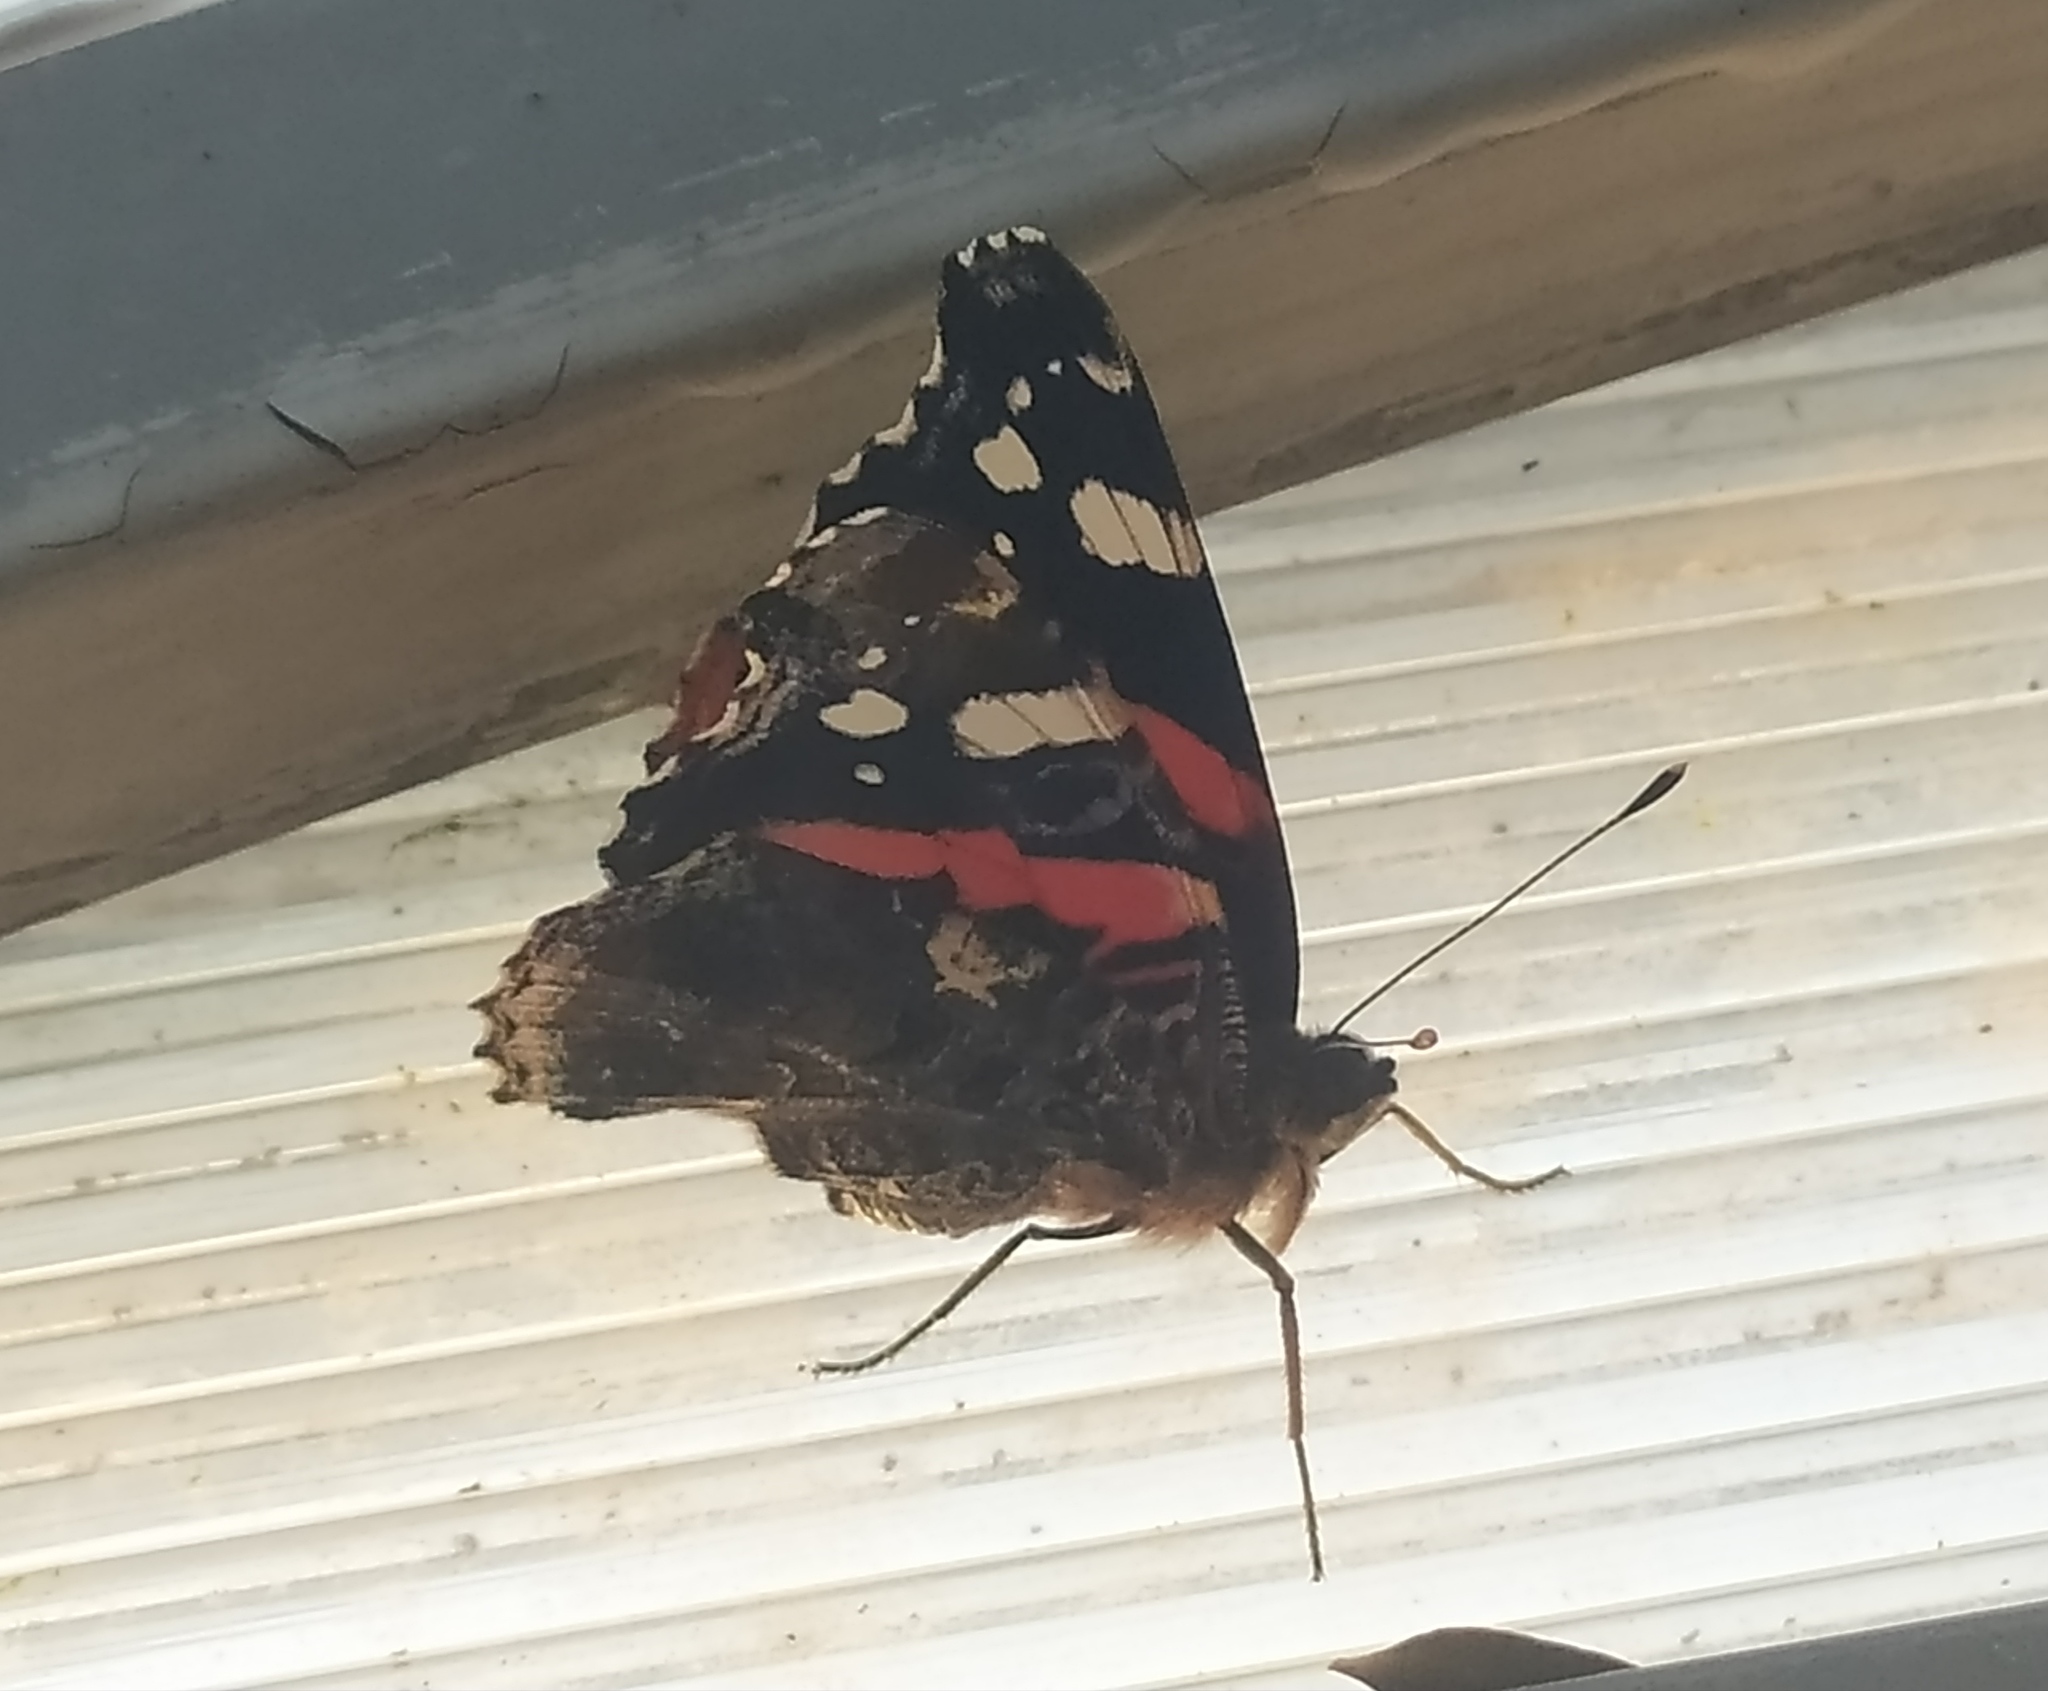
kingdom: Animalia
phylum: Arthropoda
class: Insecta
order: Lepidoptera
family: Nymphalidae
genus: Vanessa
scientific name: Vanessa atalanta
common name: Red admiral
